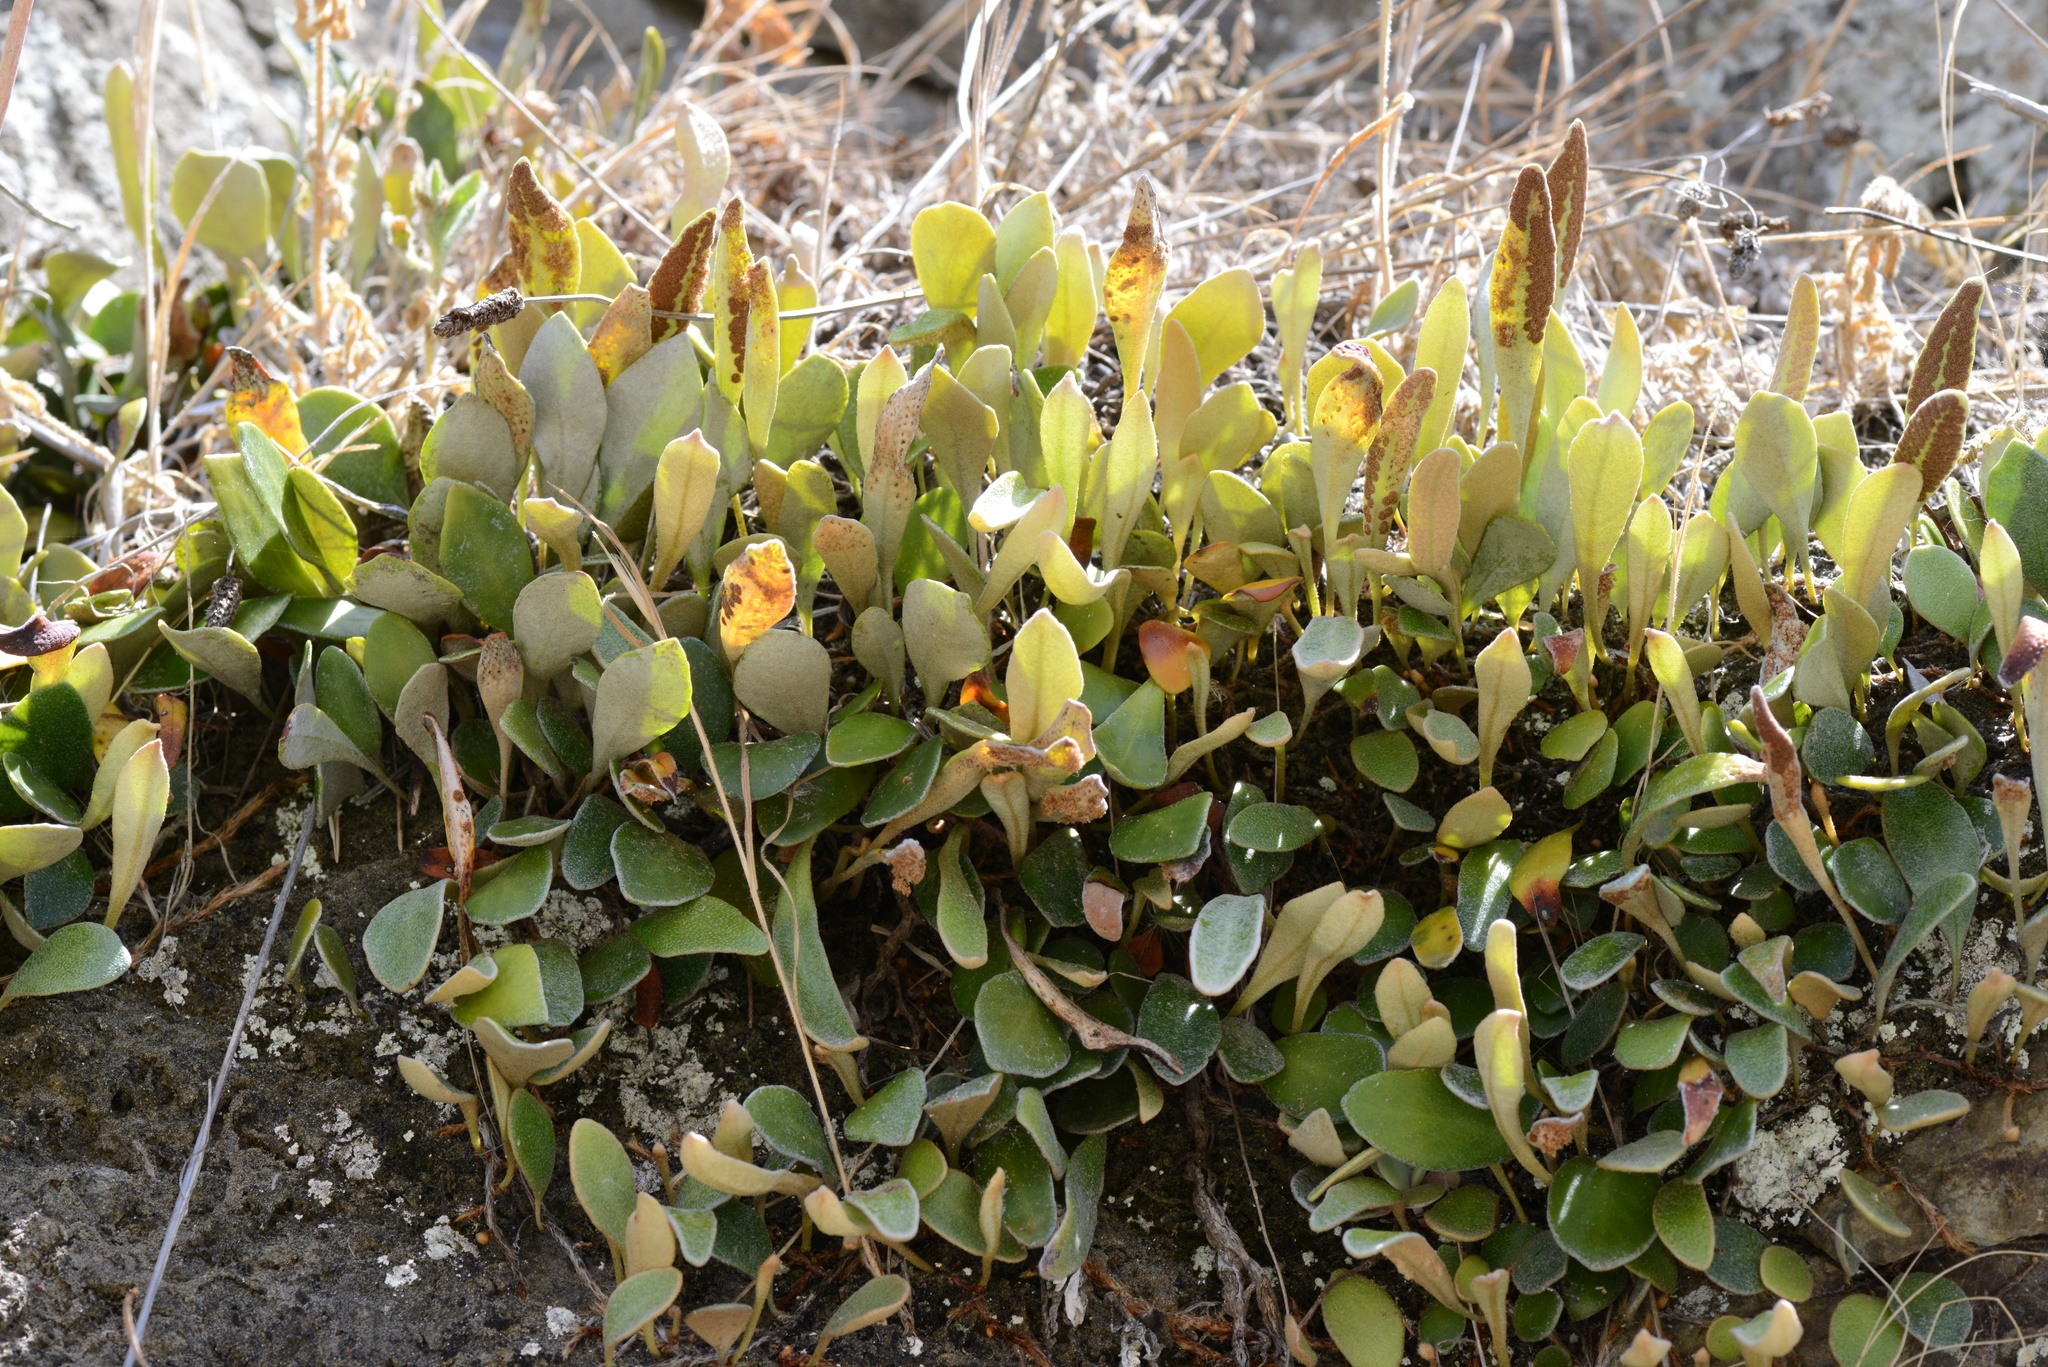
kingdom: Plantae
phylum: Tracheophyta
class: Polypodiopsida
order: Polypodiales
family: Polypodiaceae
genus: Pyrrosia
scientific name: Pyrrosia eleagnifolia
